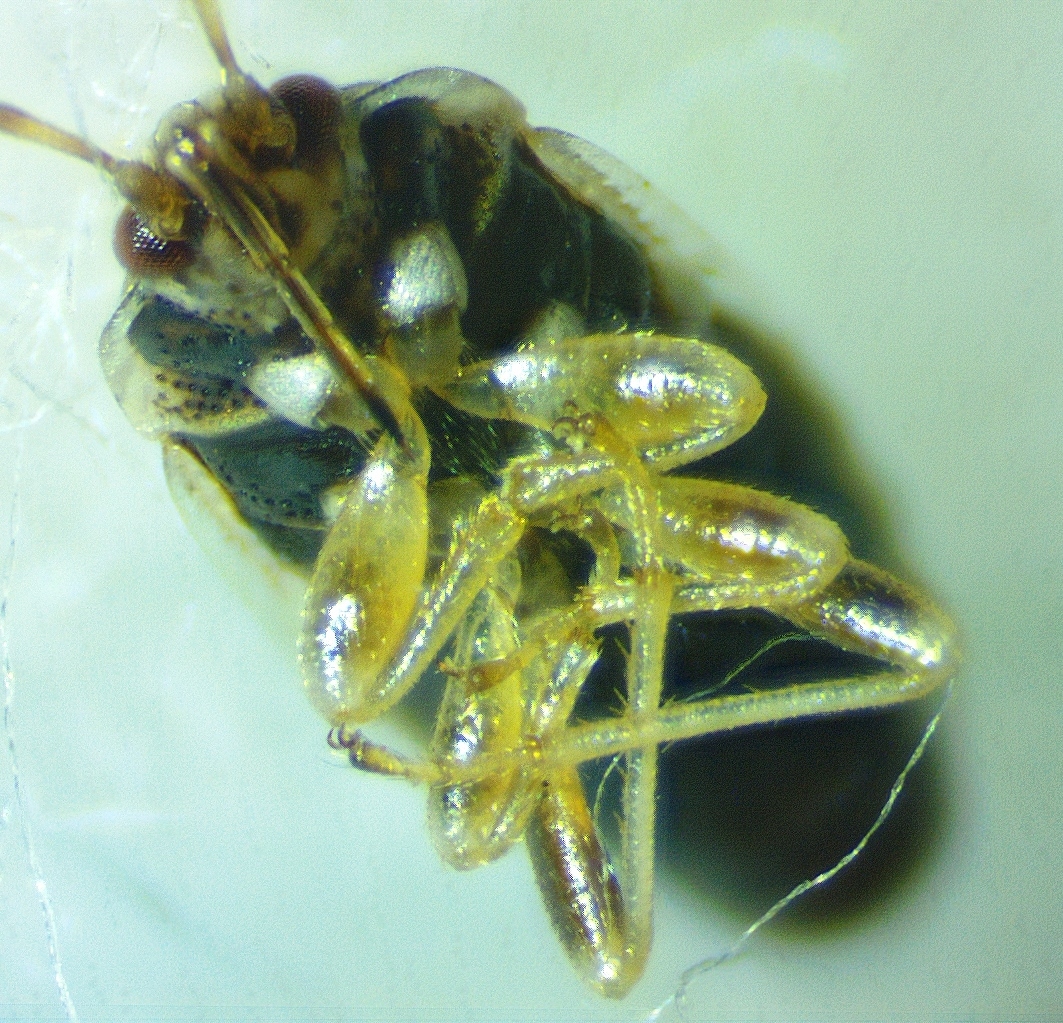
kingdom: Animalia
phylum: Arthropoda
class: Insecta
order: Hemiptera
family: Artheneidae
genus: Holcocranum
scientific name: Holcocranum saturejae
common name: Cattail bug
